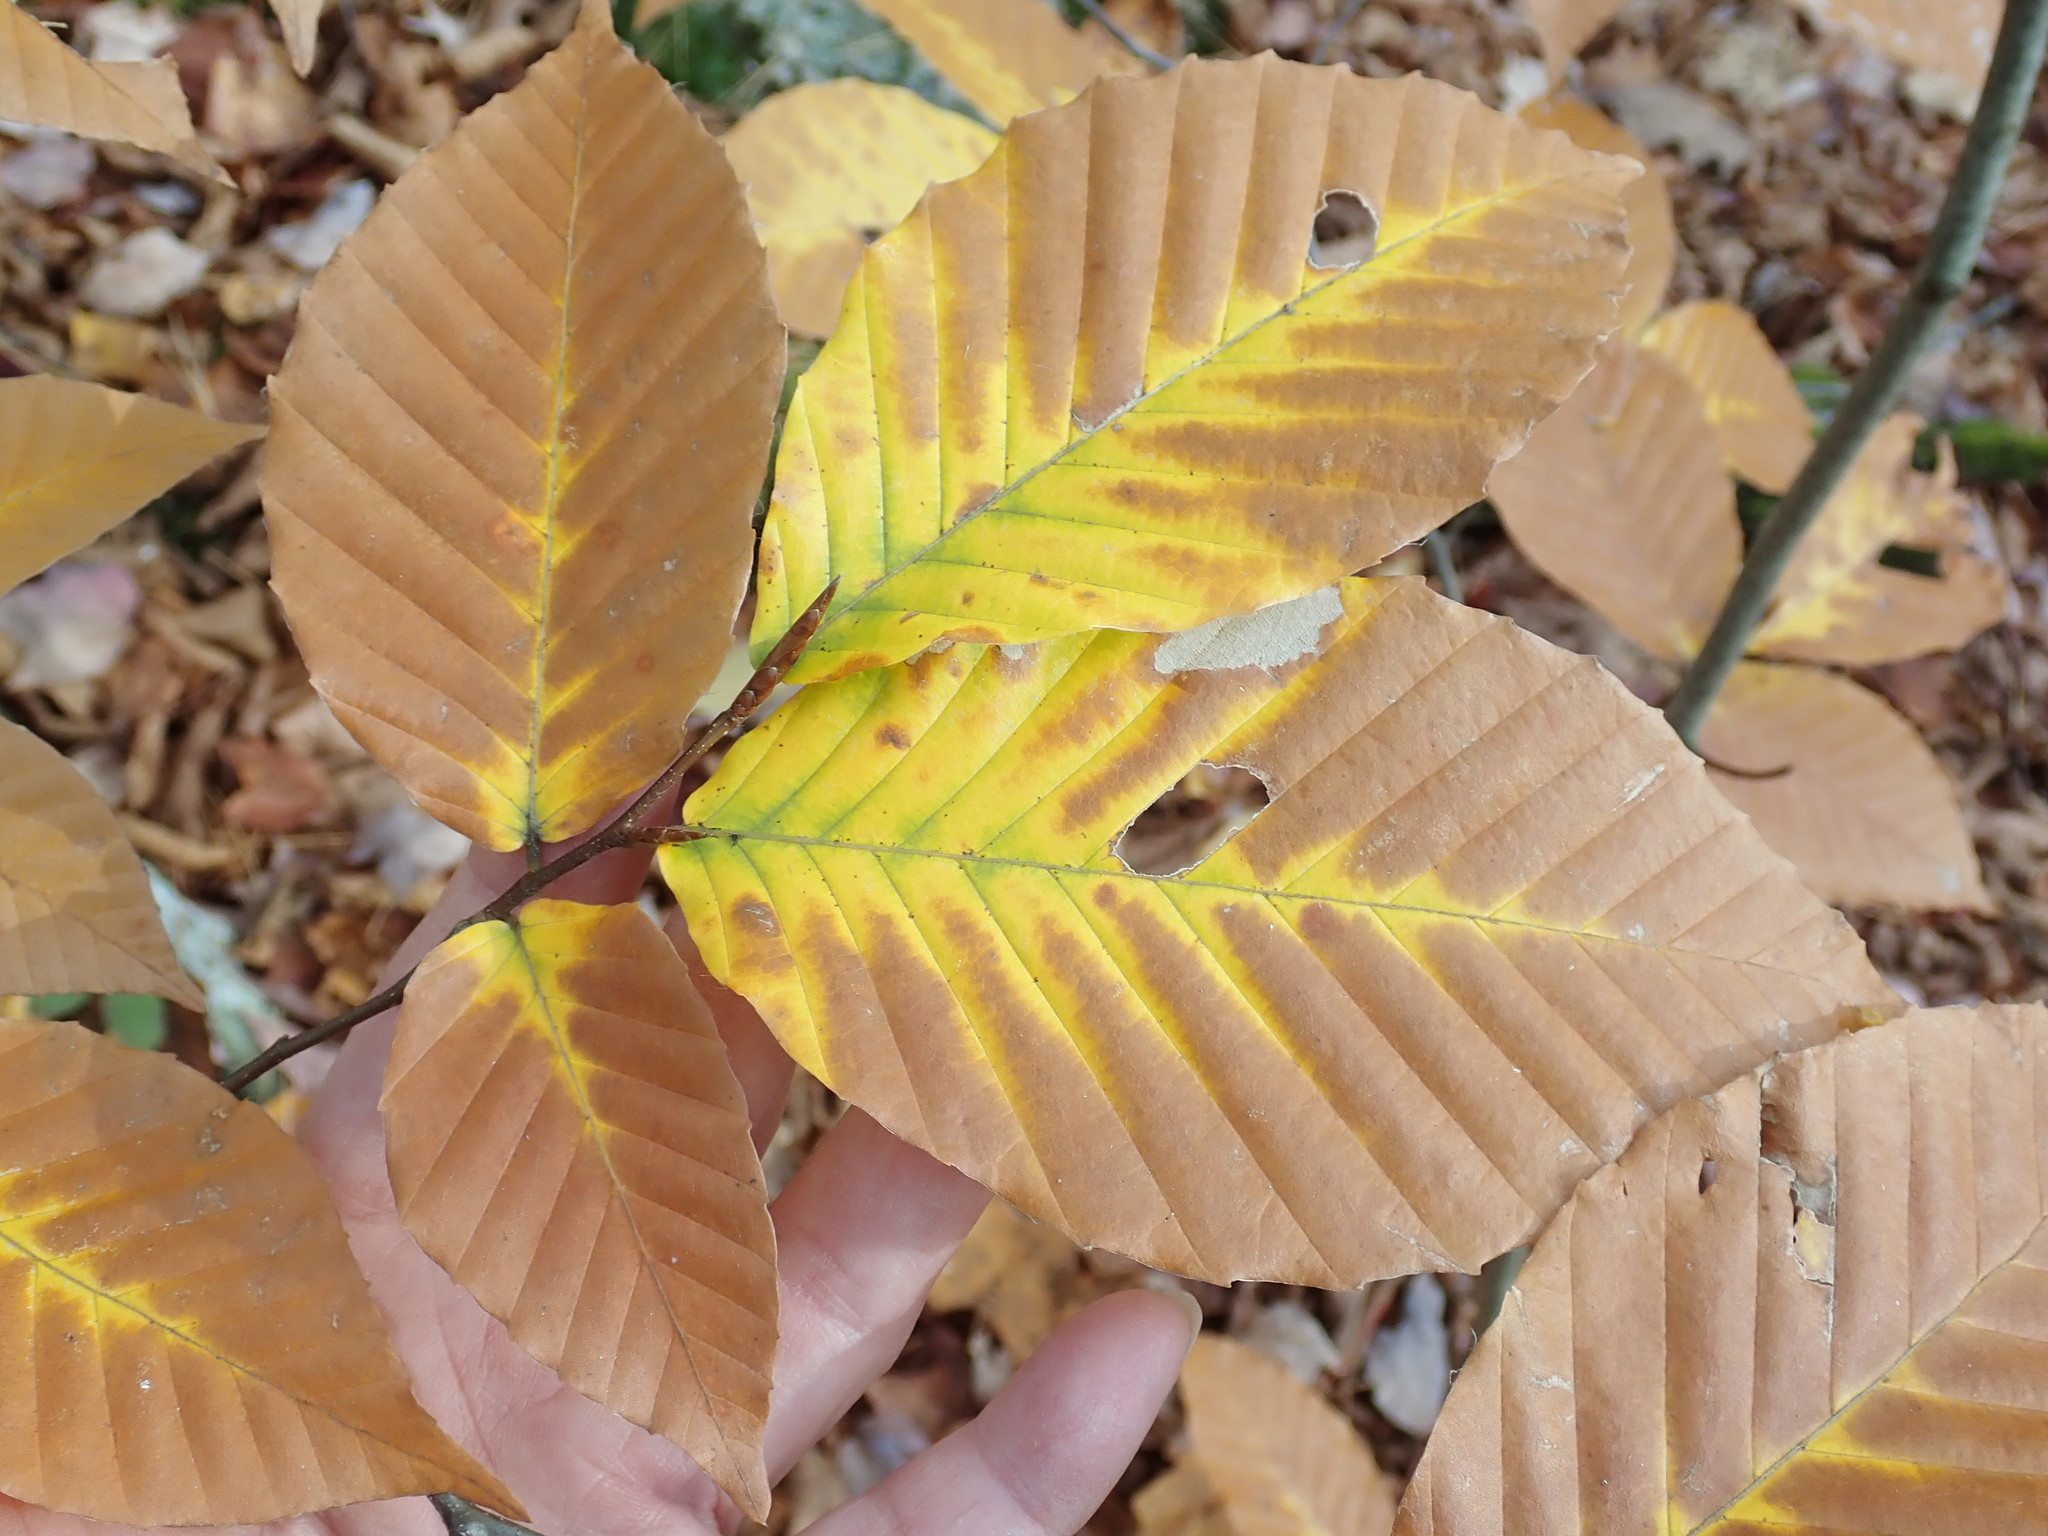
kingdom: Plantae
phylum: Tracheophyta
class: Magnoliopsida
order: Fagales
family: Fagaceae
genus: Fagus
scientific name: Fagus grandifolia
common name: American beech
